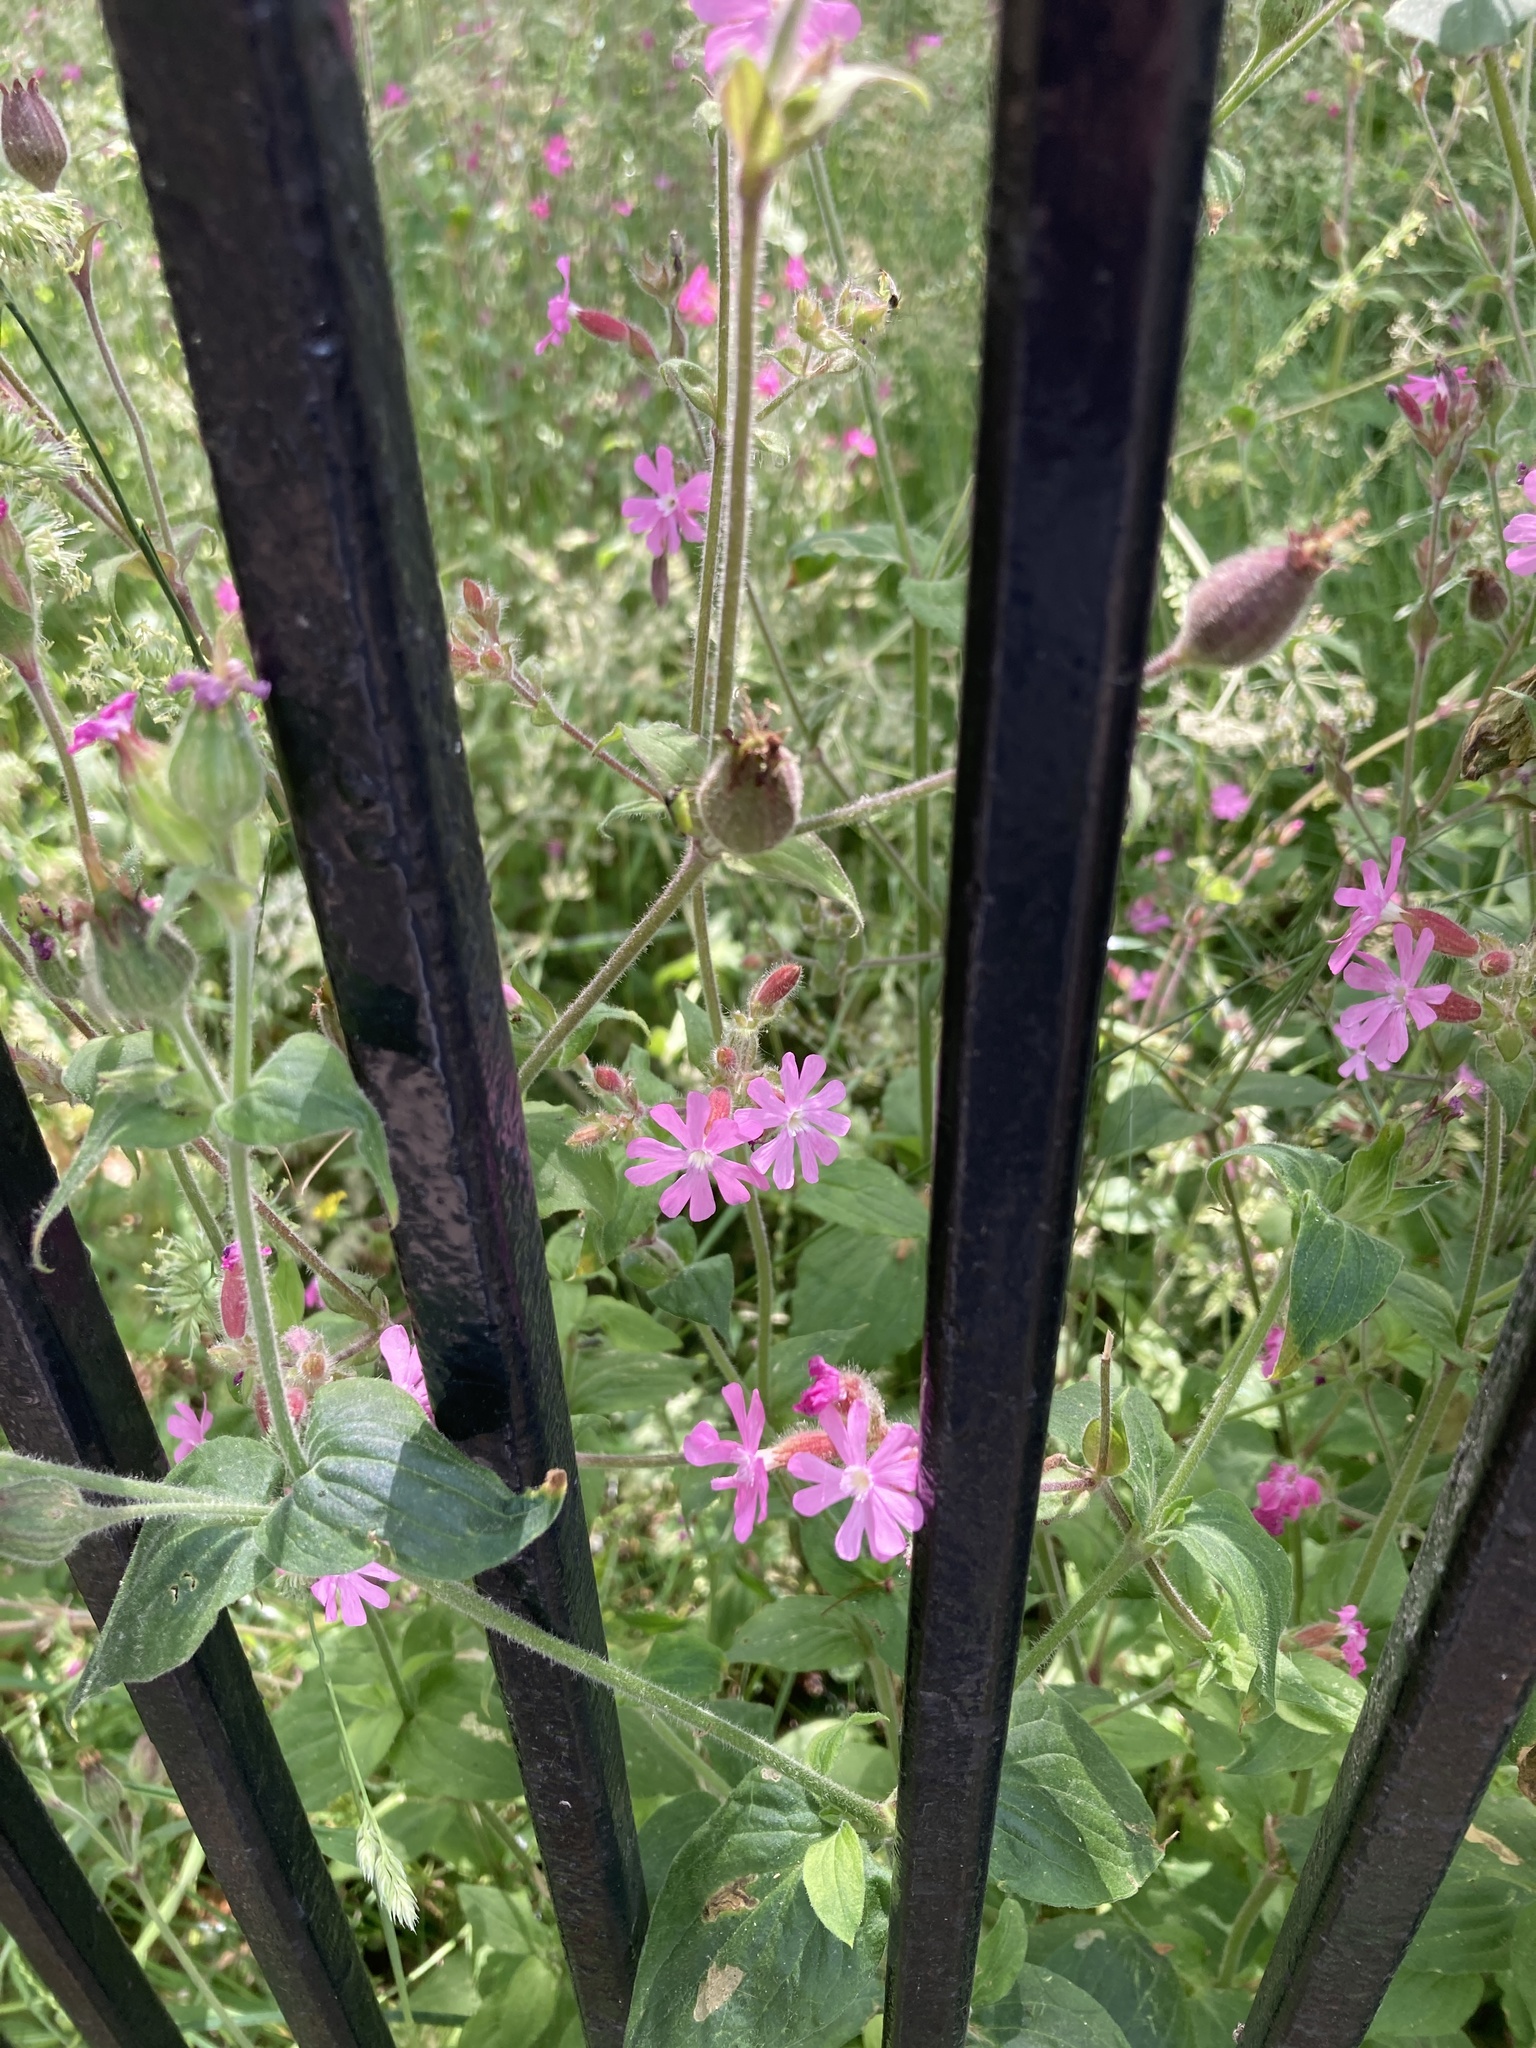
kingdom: Plantae
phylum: Tracheophyta
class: Magnoliopsida
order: Caryophyllales
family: Caryophyllaceae
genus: Silene
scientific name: Silene dioica
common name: Red campion
